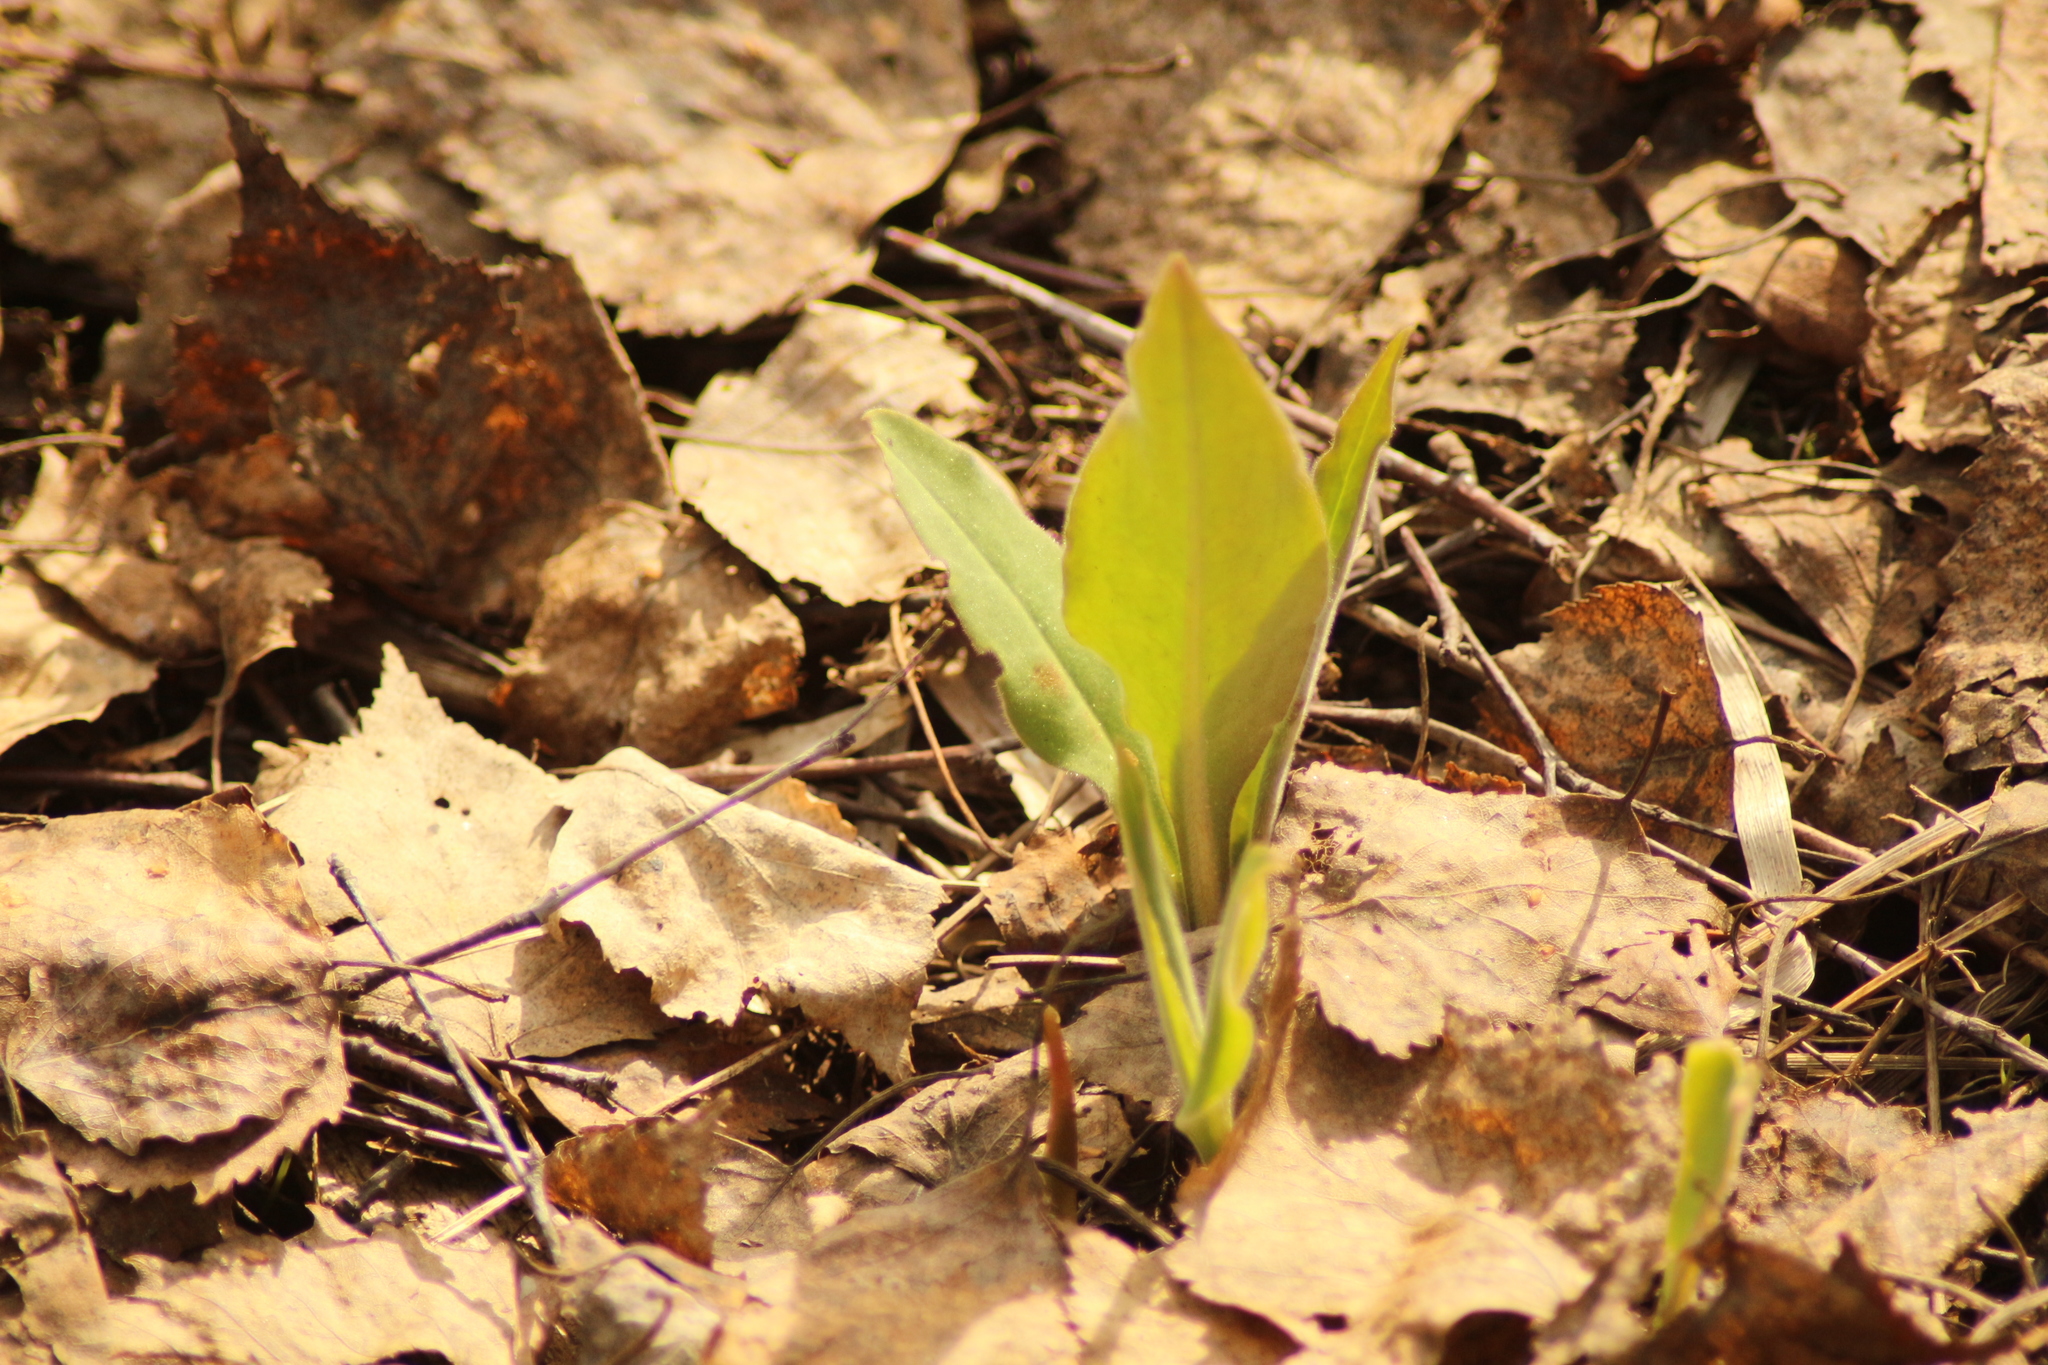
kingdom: Plantae
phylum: Tracheophyta
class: Magnoliopsida
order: Boraginales
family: Boraginaceae
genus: Pulmonaria
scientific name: Pulmonaria mollis
